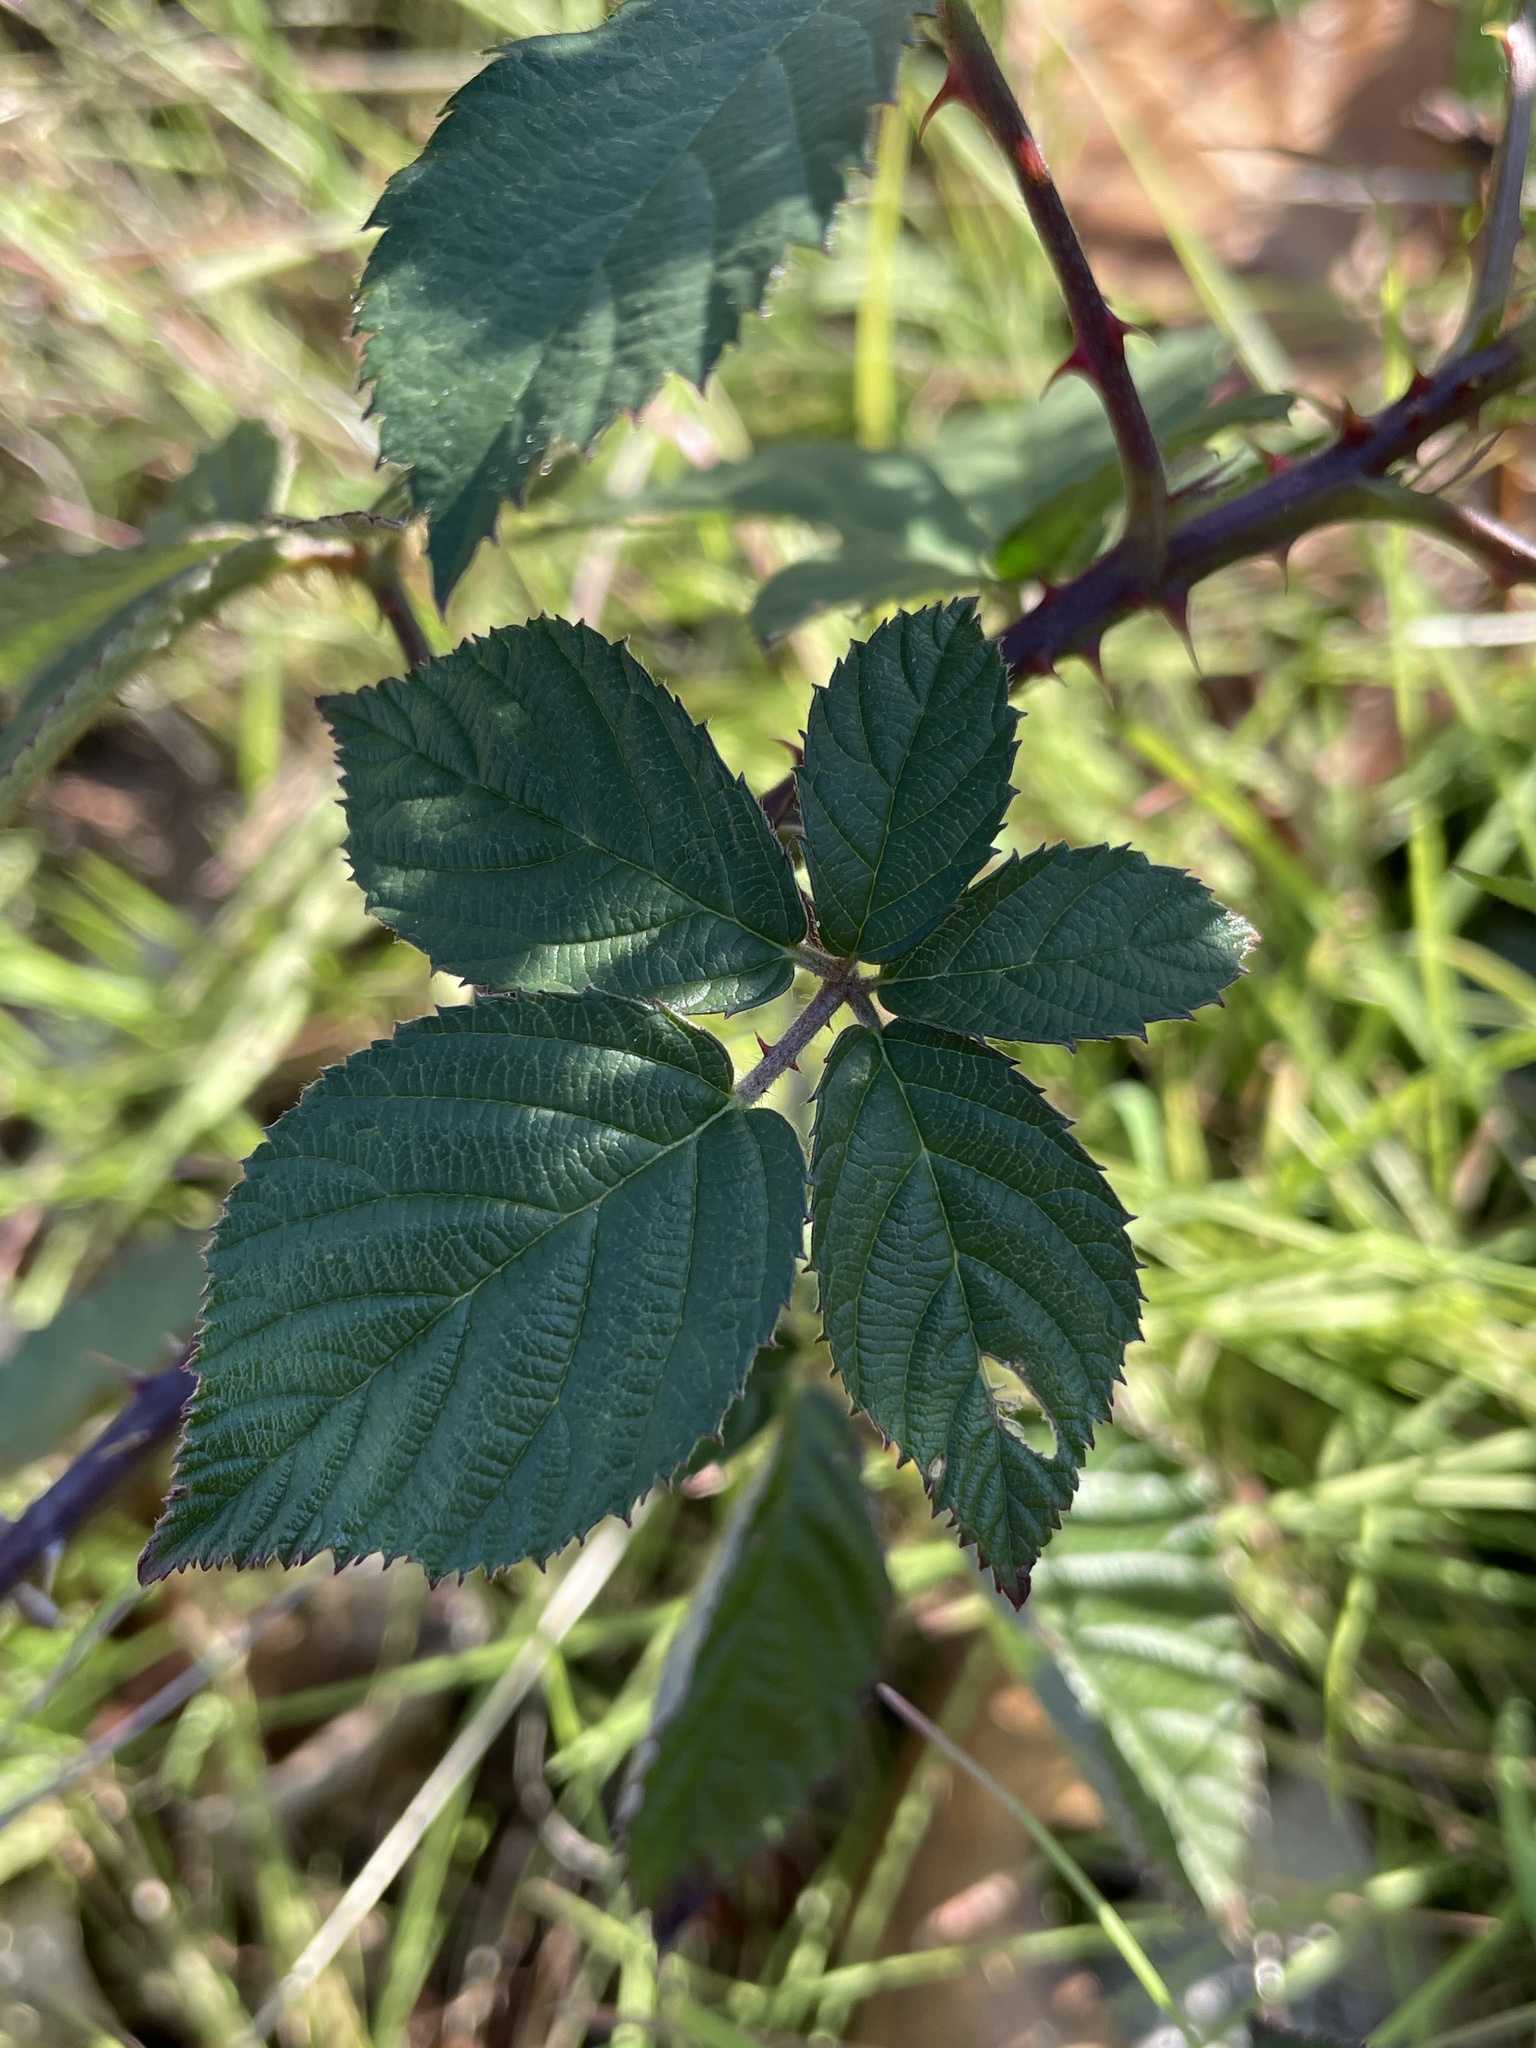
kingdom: Plantae
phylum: Tracheophyta
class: Magnoliopsida
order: Rosales
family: Rosaceae
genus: Rubus
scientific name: Rubus armeniacus
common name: Himalayan blackberry
